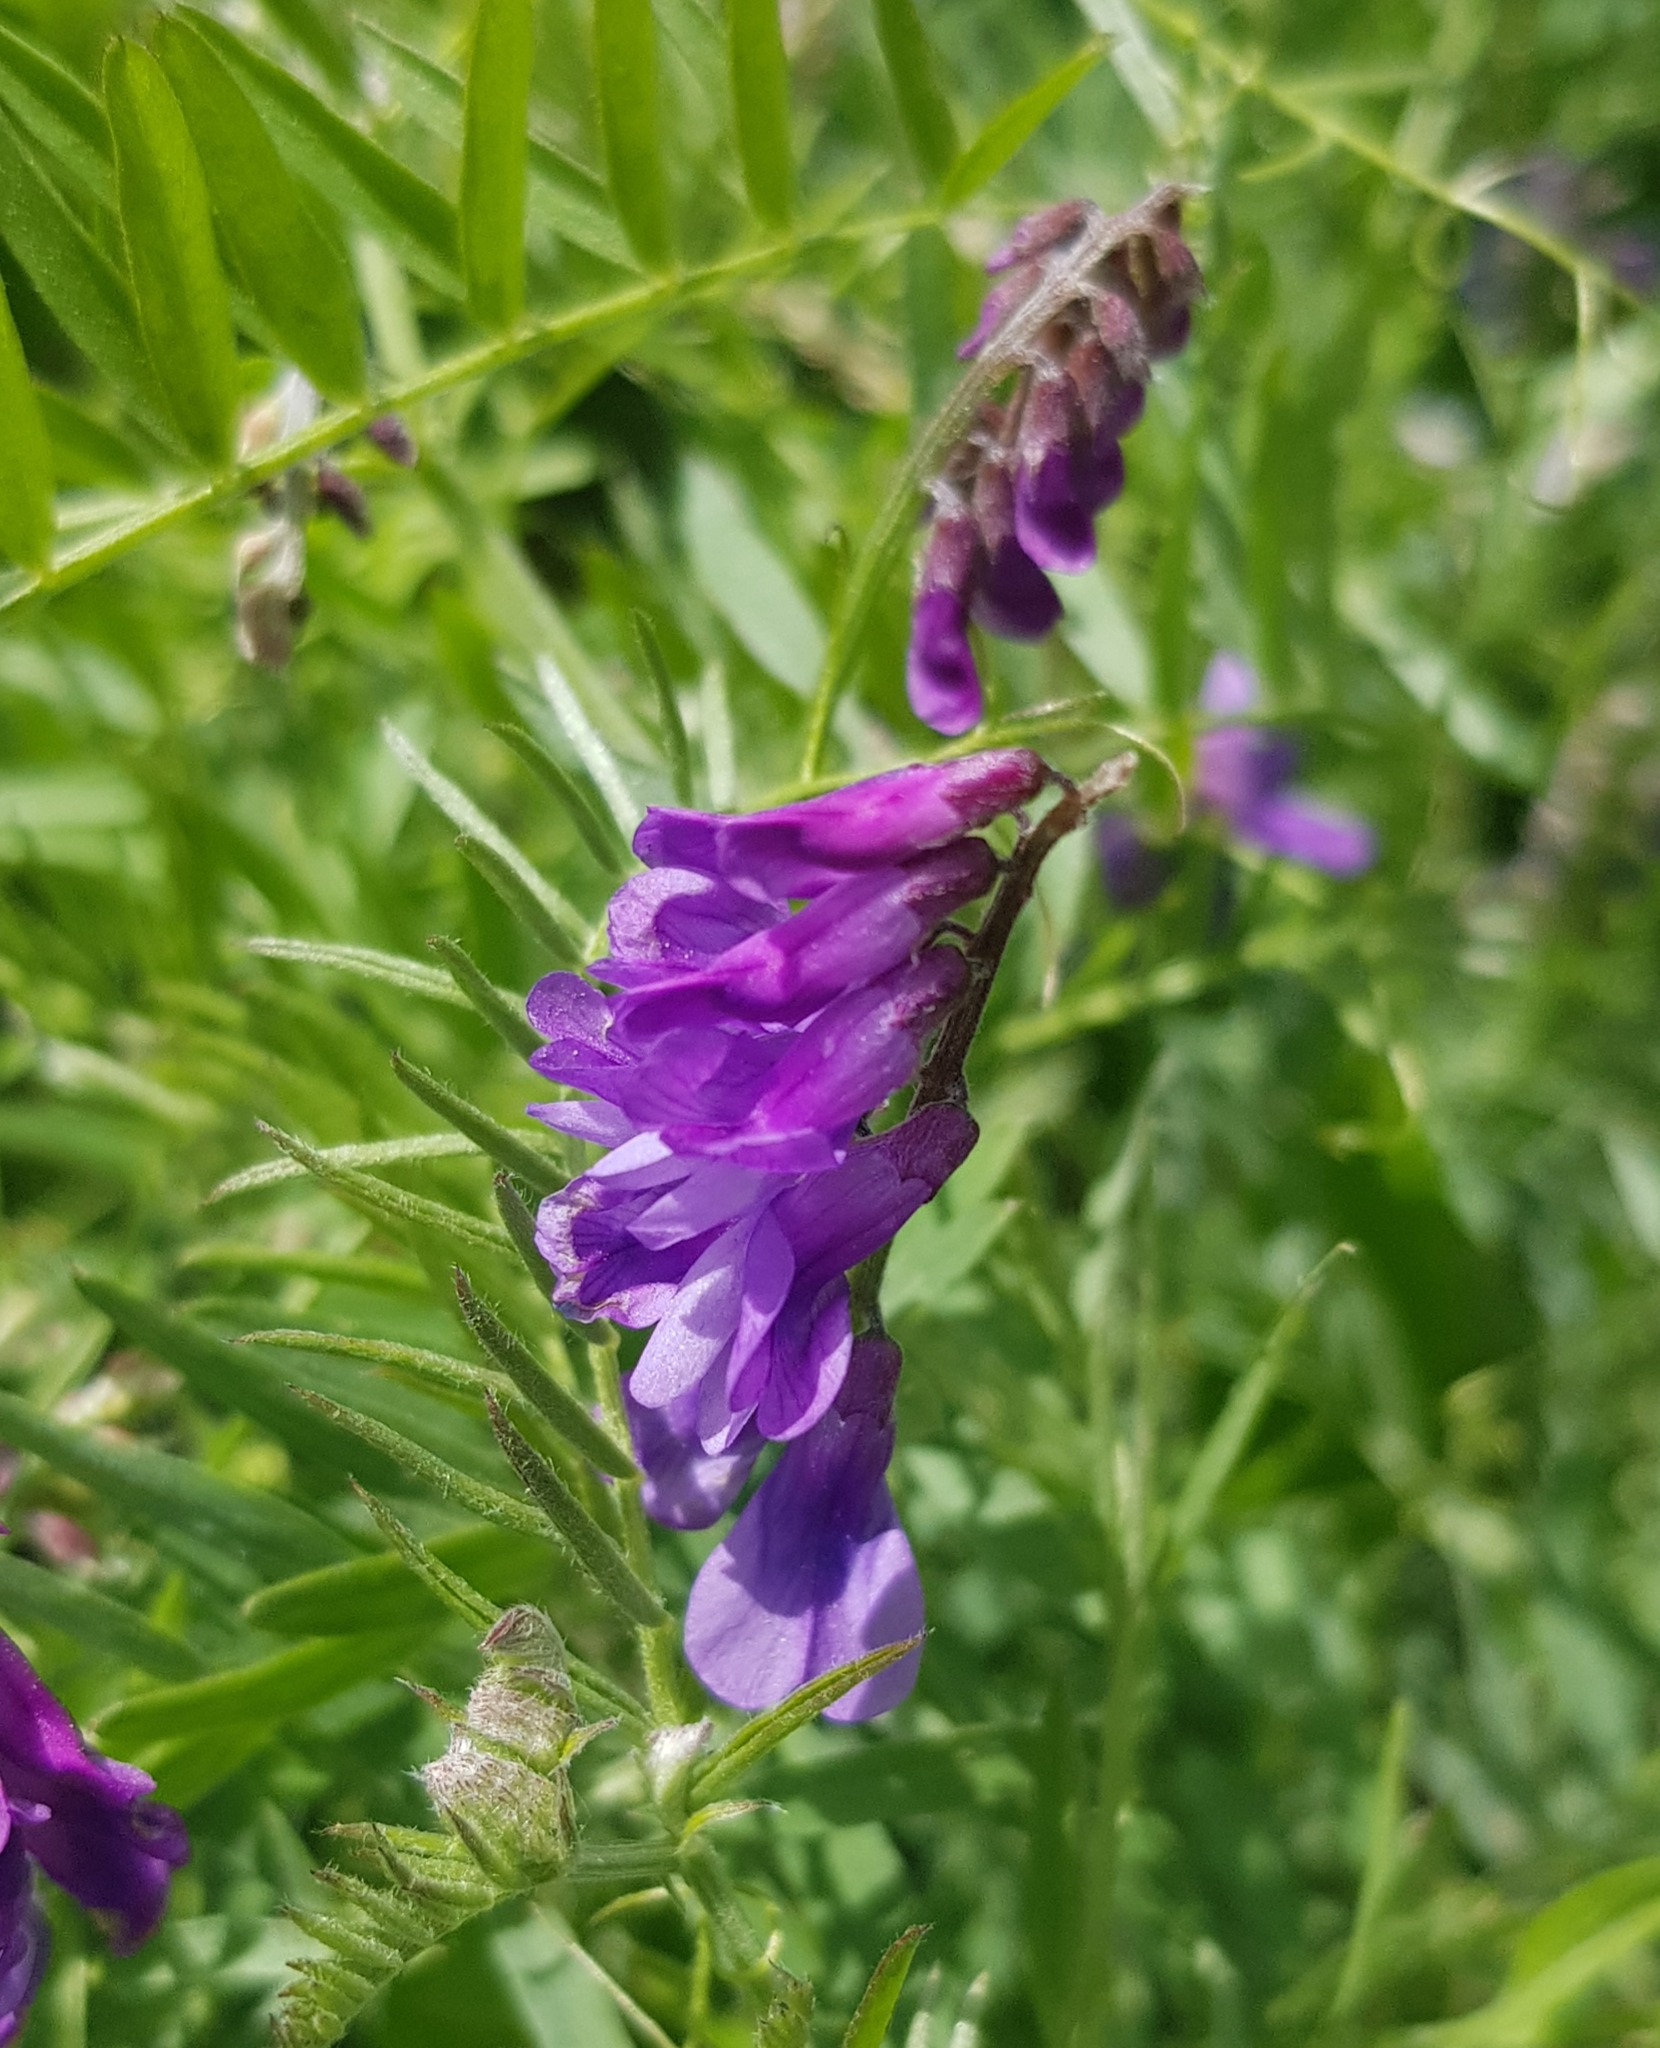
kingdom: Plantae
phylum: Tracheophyta
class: Magnoliopsida
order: Fabales
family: Fabaceae
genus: Vicia
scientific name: Vicia cracca
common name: Bird vetch
